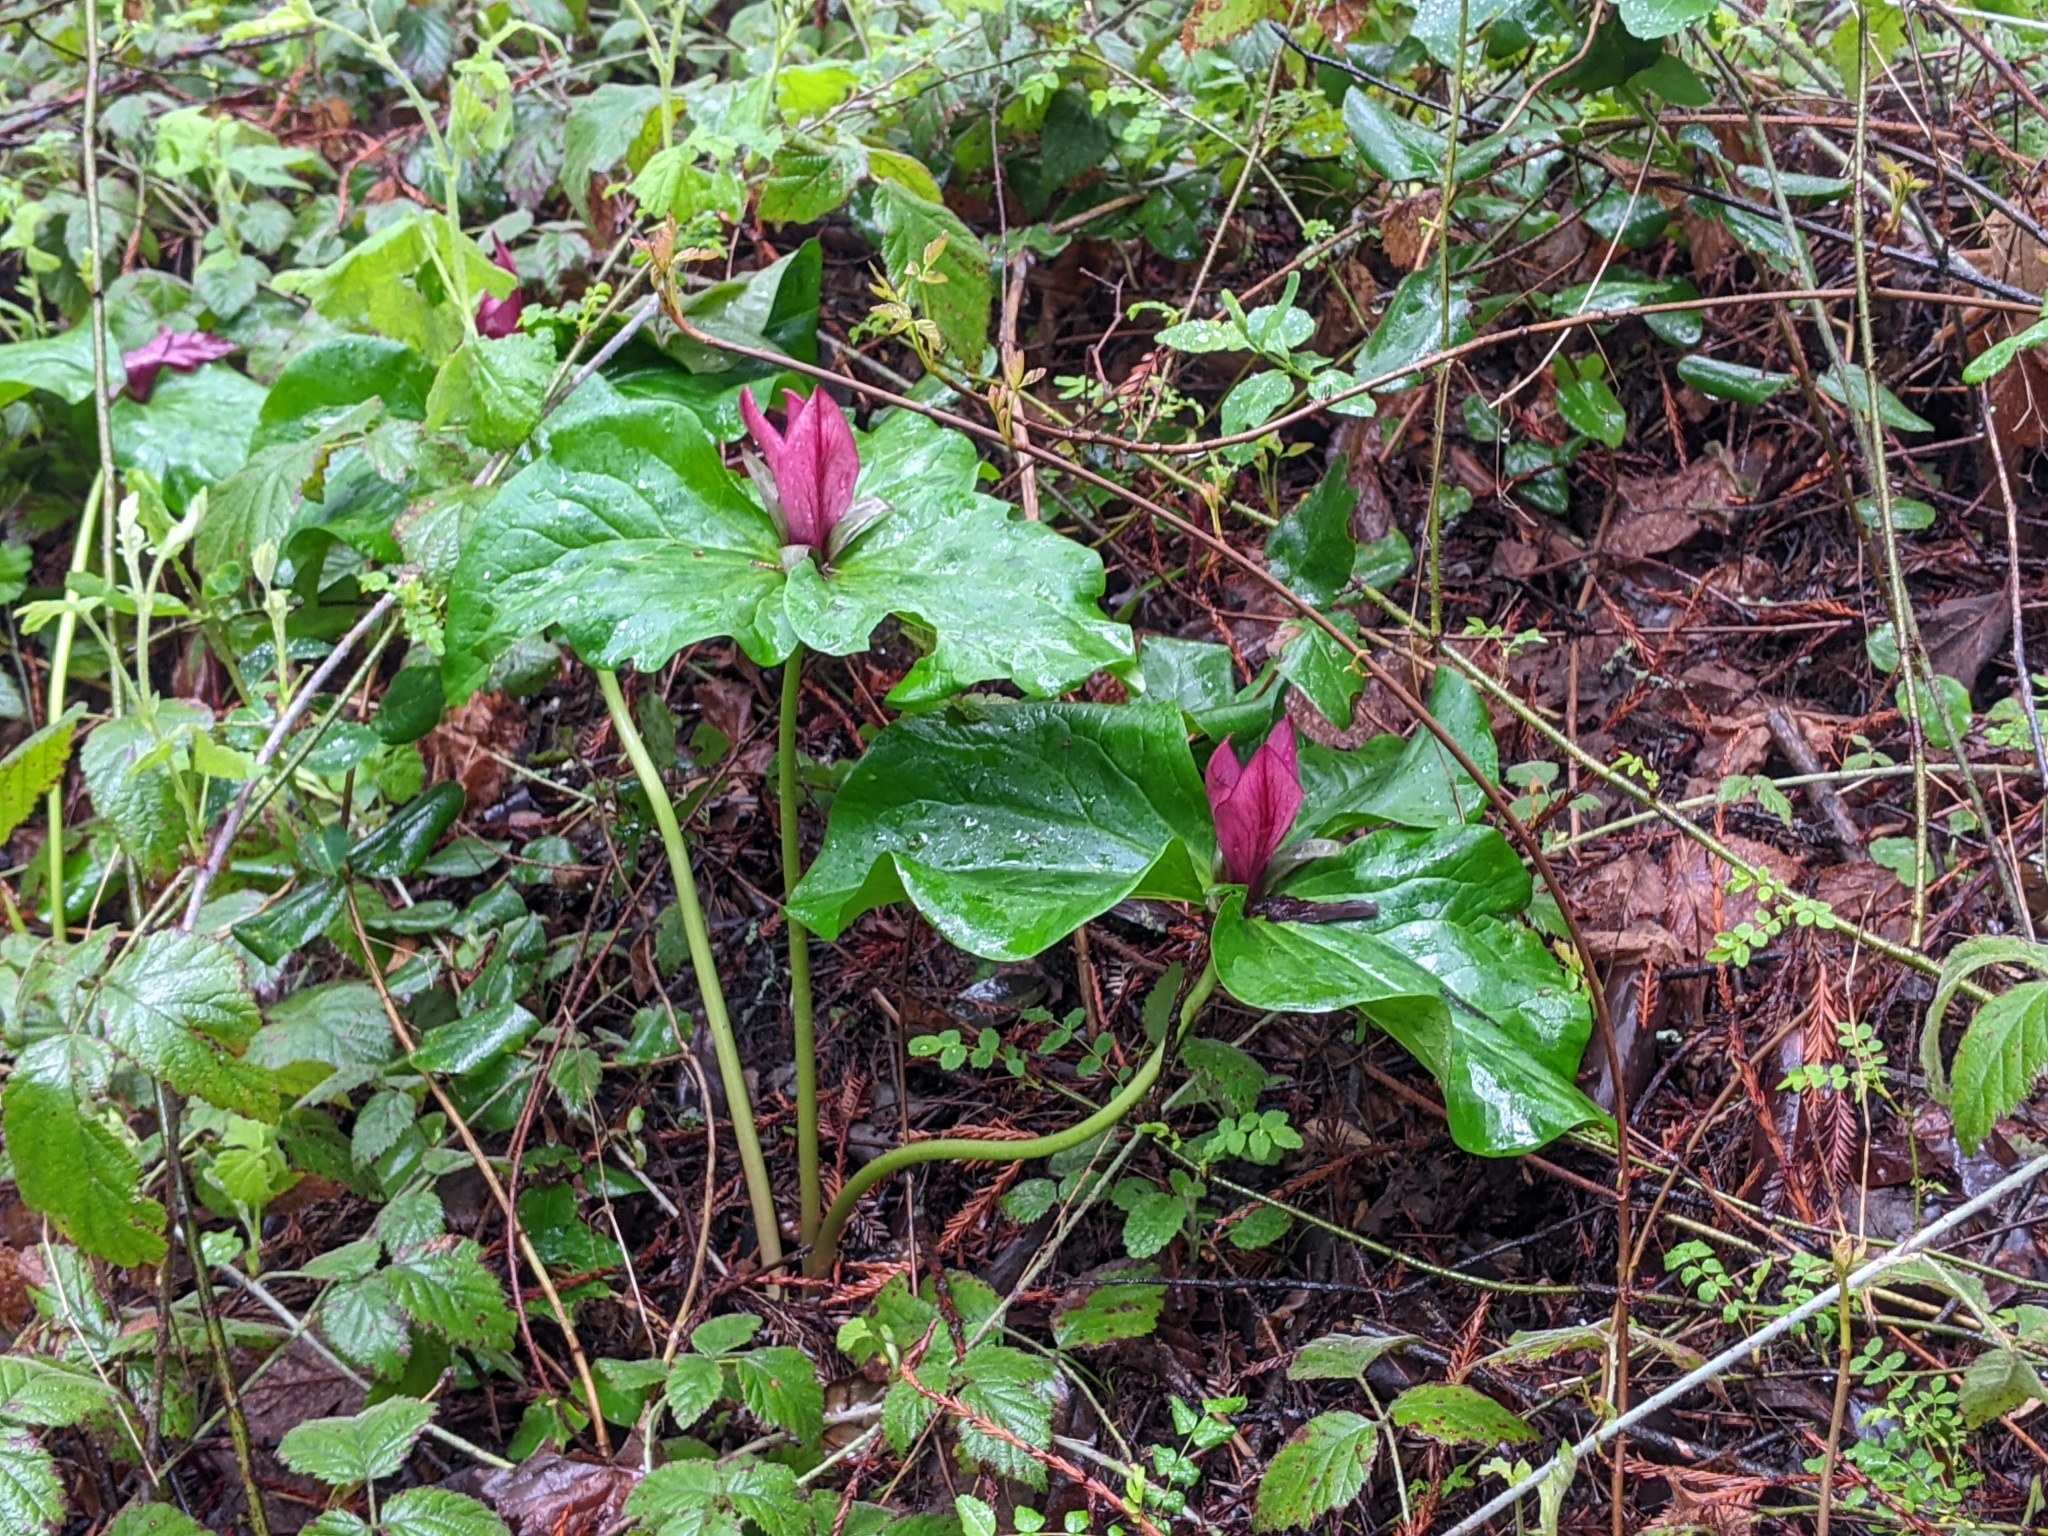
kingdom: Plantae
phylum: Tracheophyta
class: Liliopsida
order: Liliales
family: Melanthiaceae
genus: Trillium
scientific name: Trillium chloropetalum
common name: Giant trillium
